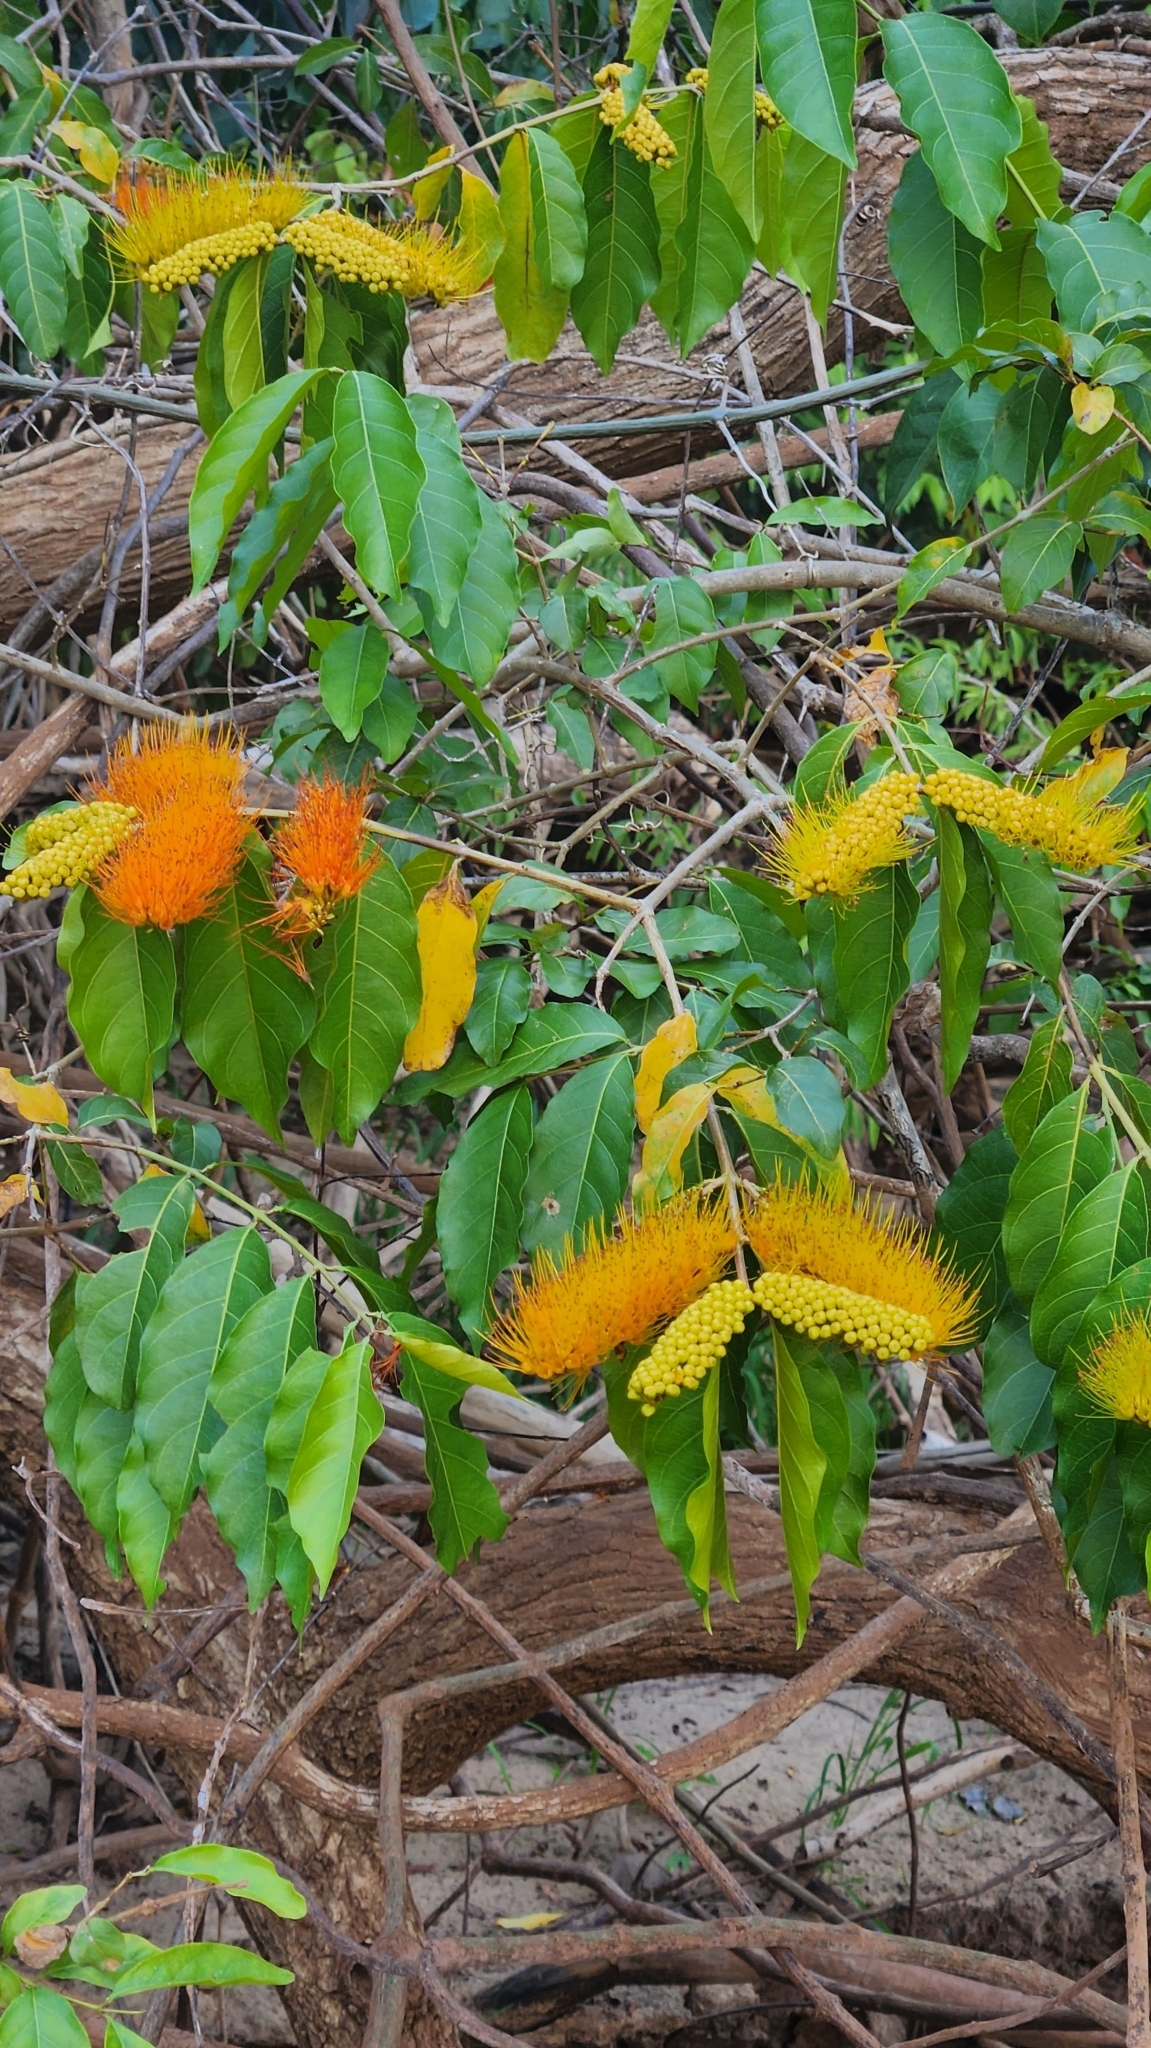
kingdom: Plantae
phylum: Tracheophyta
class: Magnoliopsida
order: Myrtales
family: Combretaceae
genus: Combretum
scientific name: Combretum fruticosum
